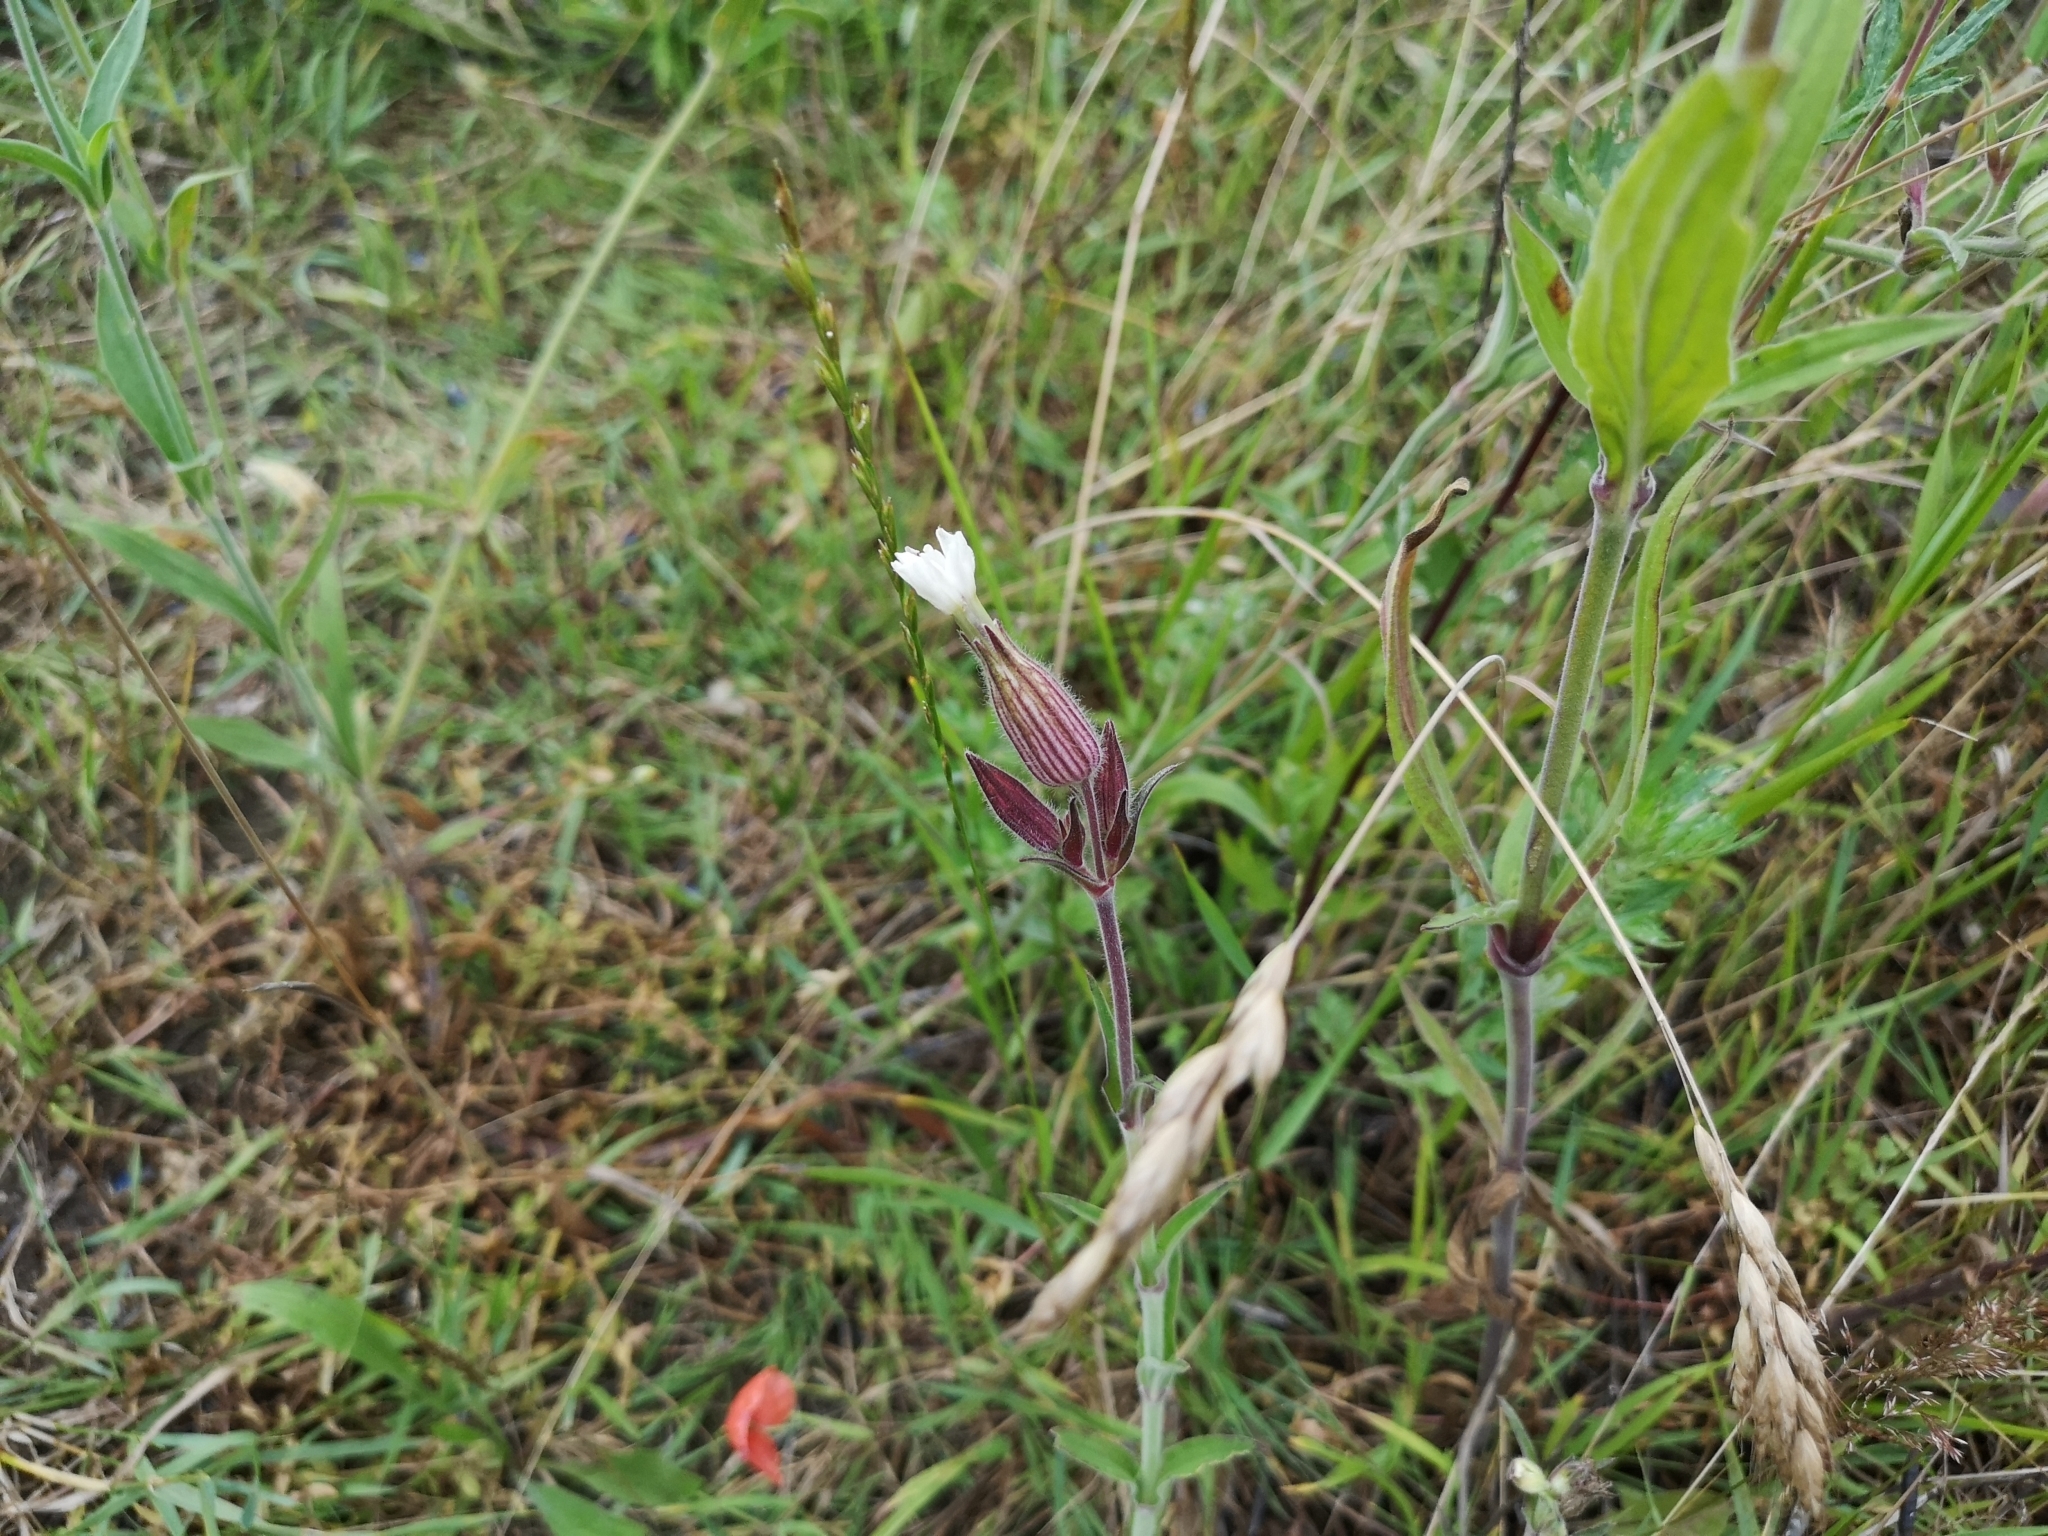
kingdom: Plantae
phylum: Tracheophyta
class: Magnoliopsida
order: Caryophyllales
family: Caryophyllaceae
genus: Silene
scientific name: Silene latifolia
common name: White campion
